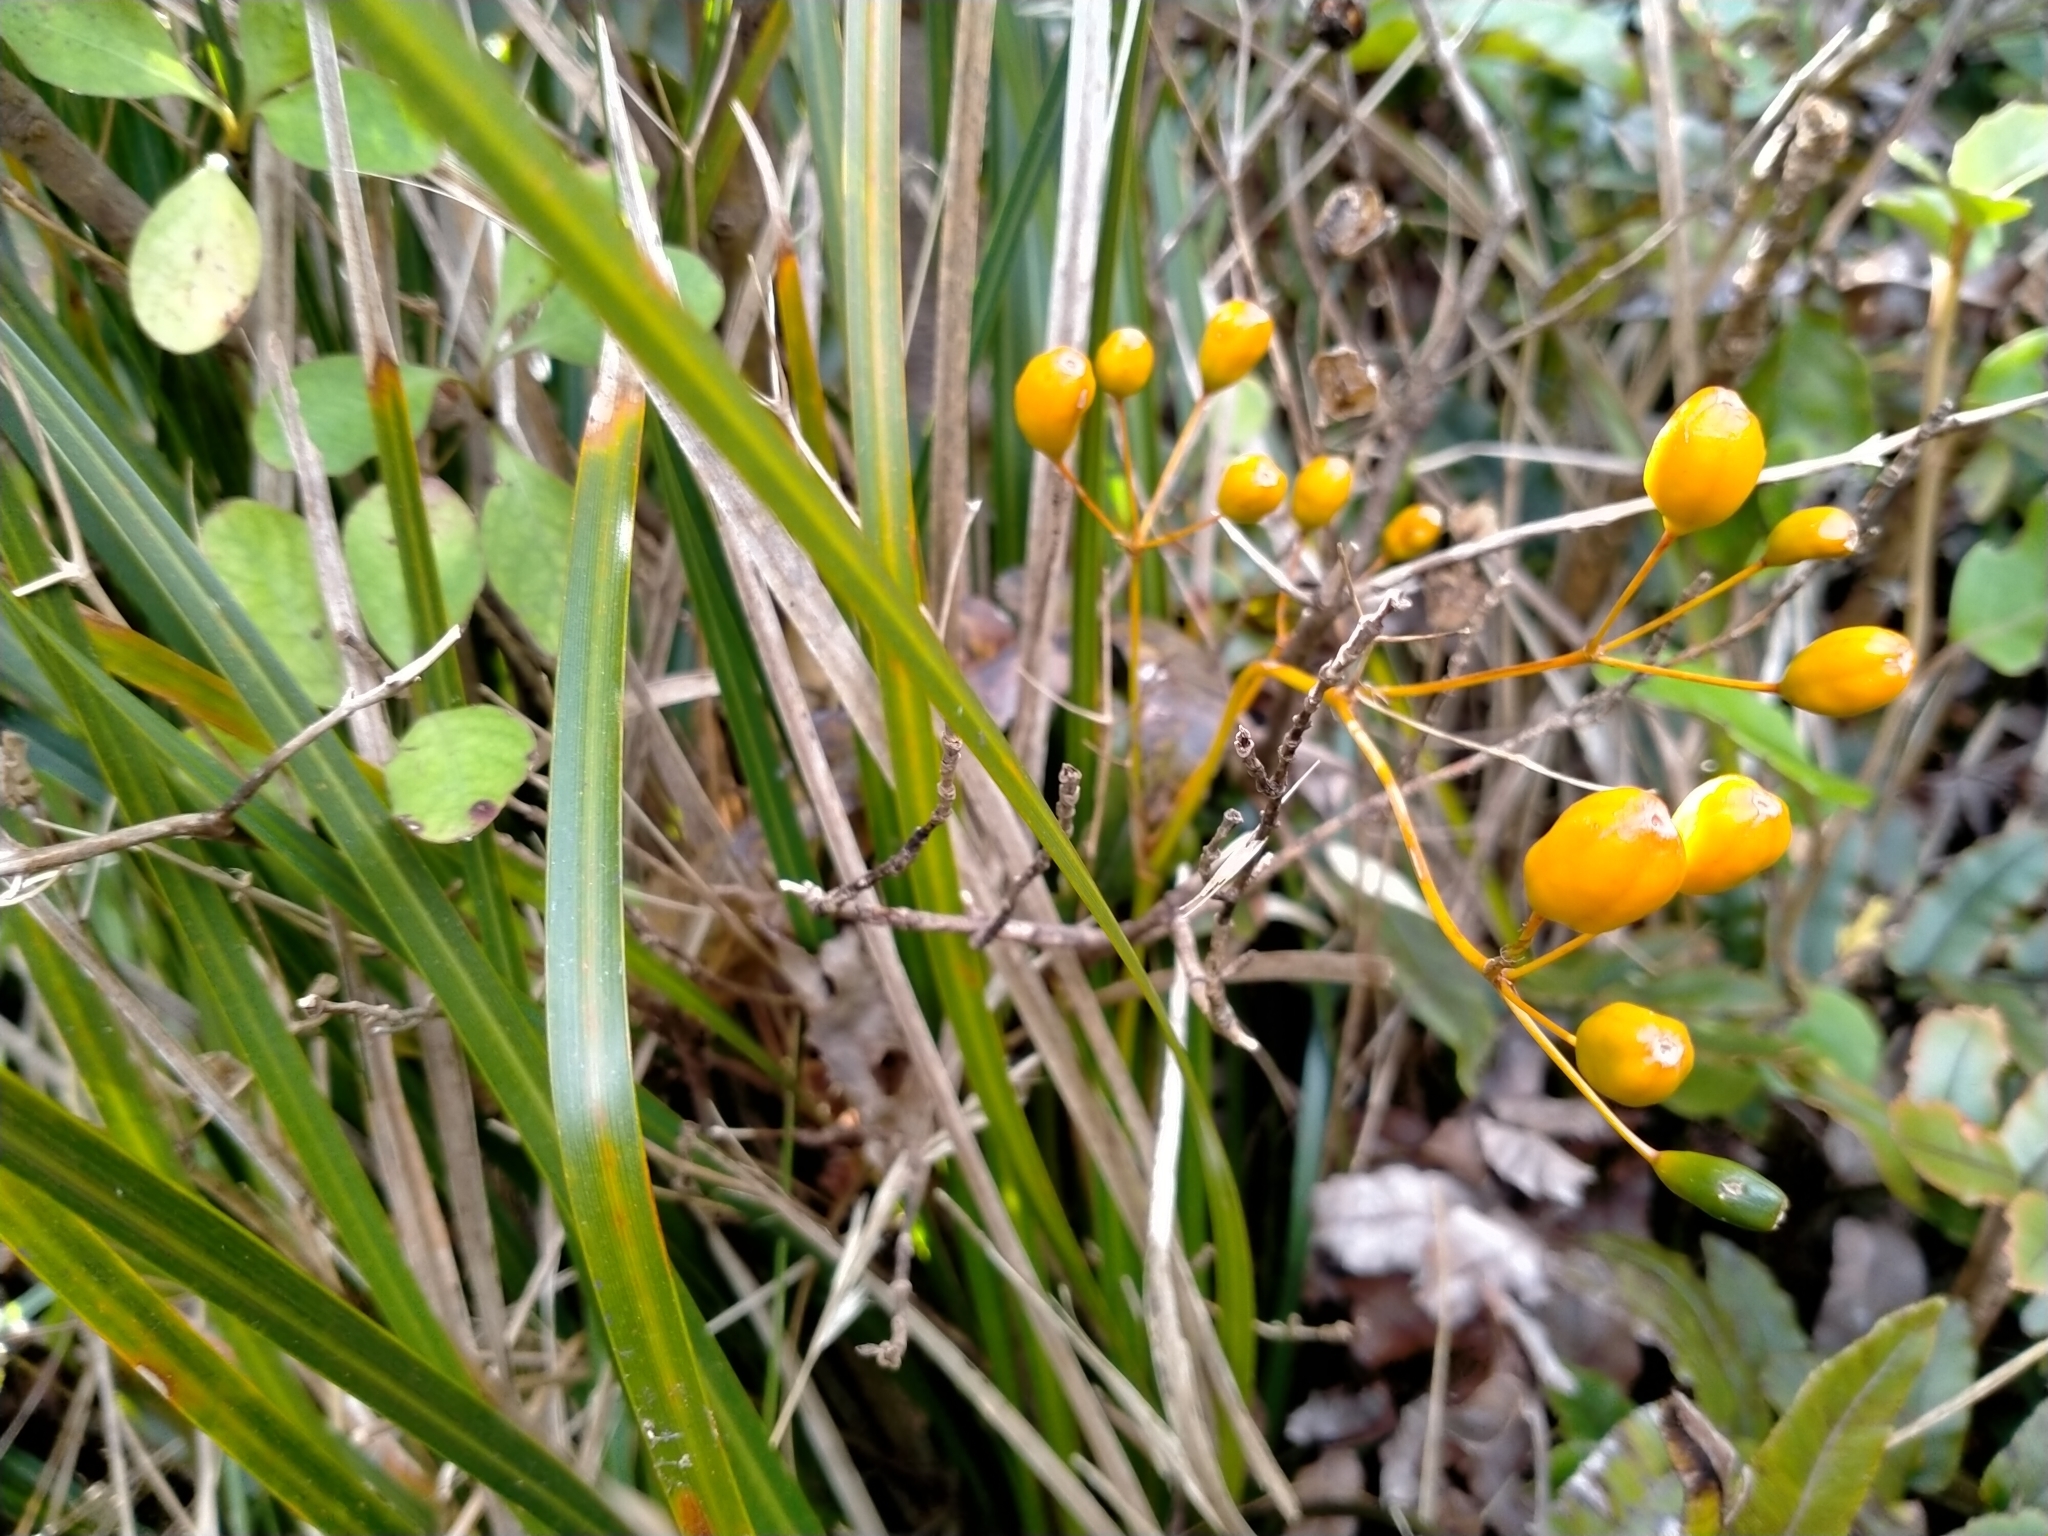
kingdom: Plantae
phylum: Tracheophyta
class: Liliopsida
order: Asparagales
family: Iridaceae
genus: Libertia
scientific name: Libertia ixioides
